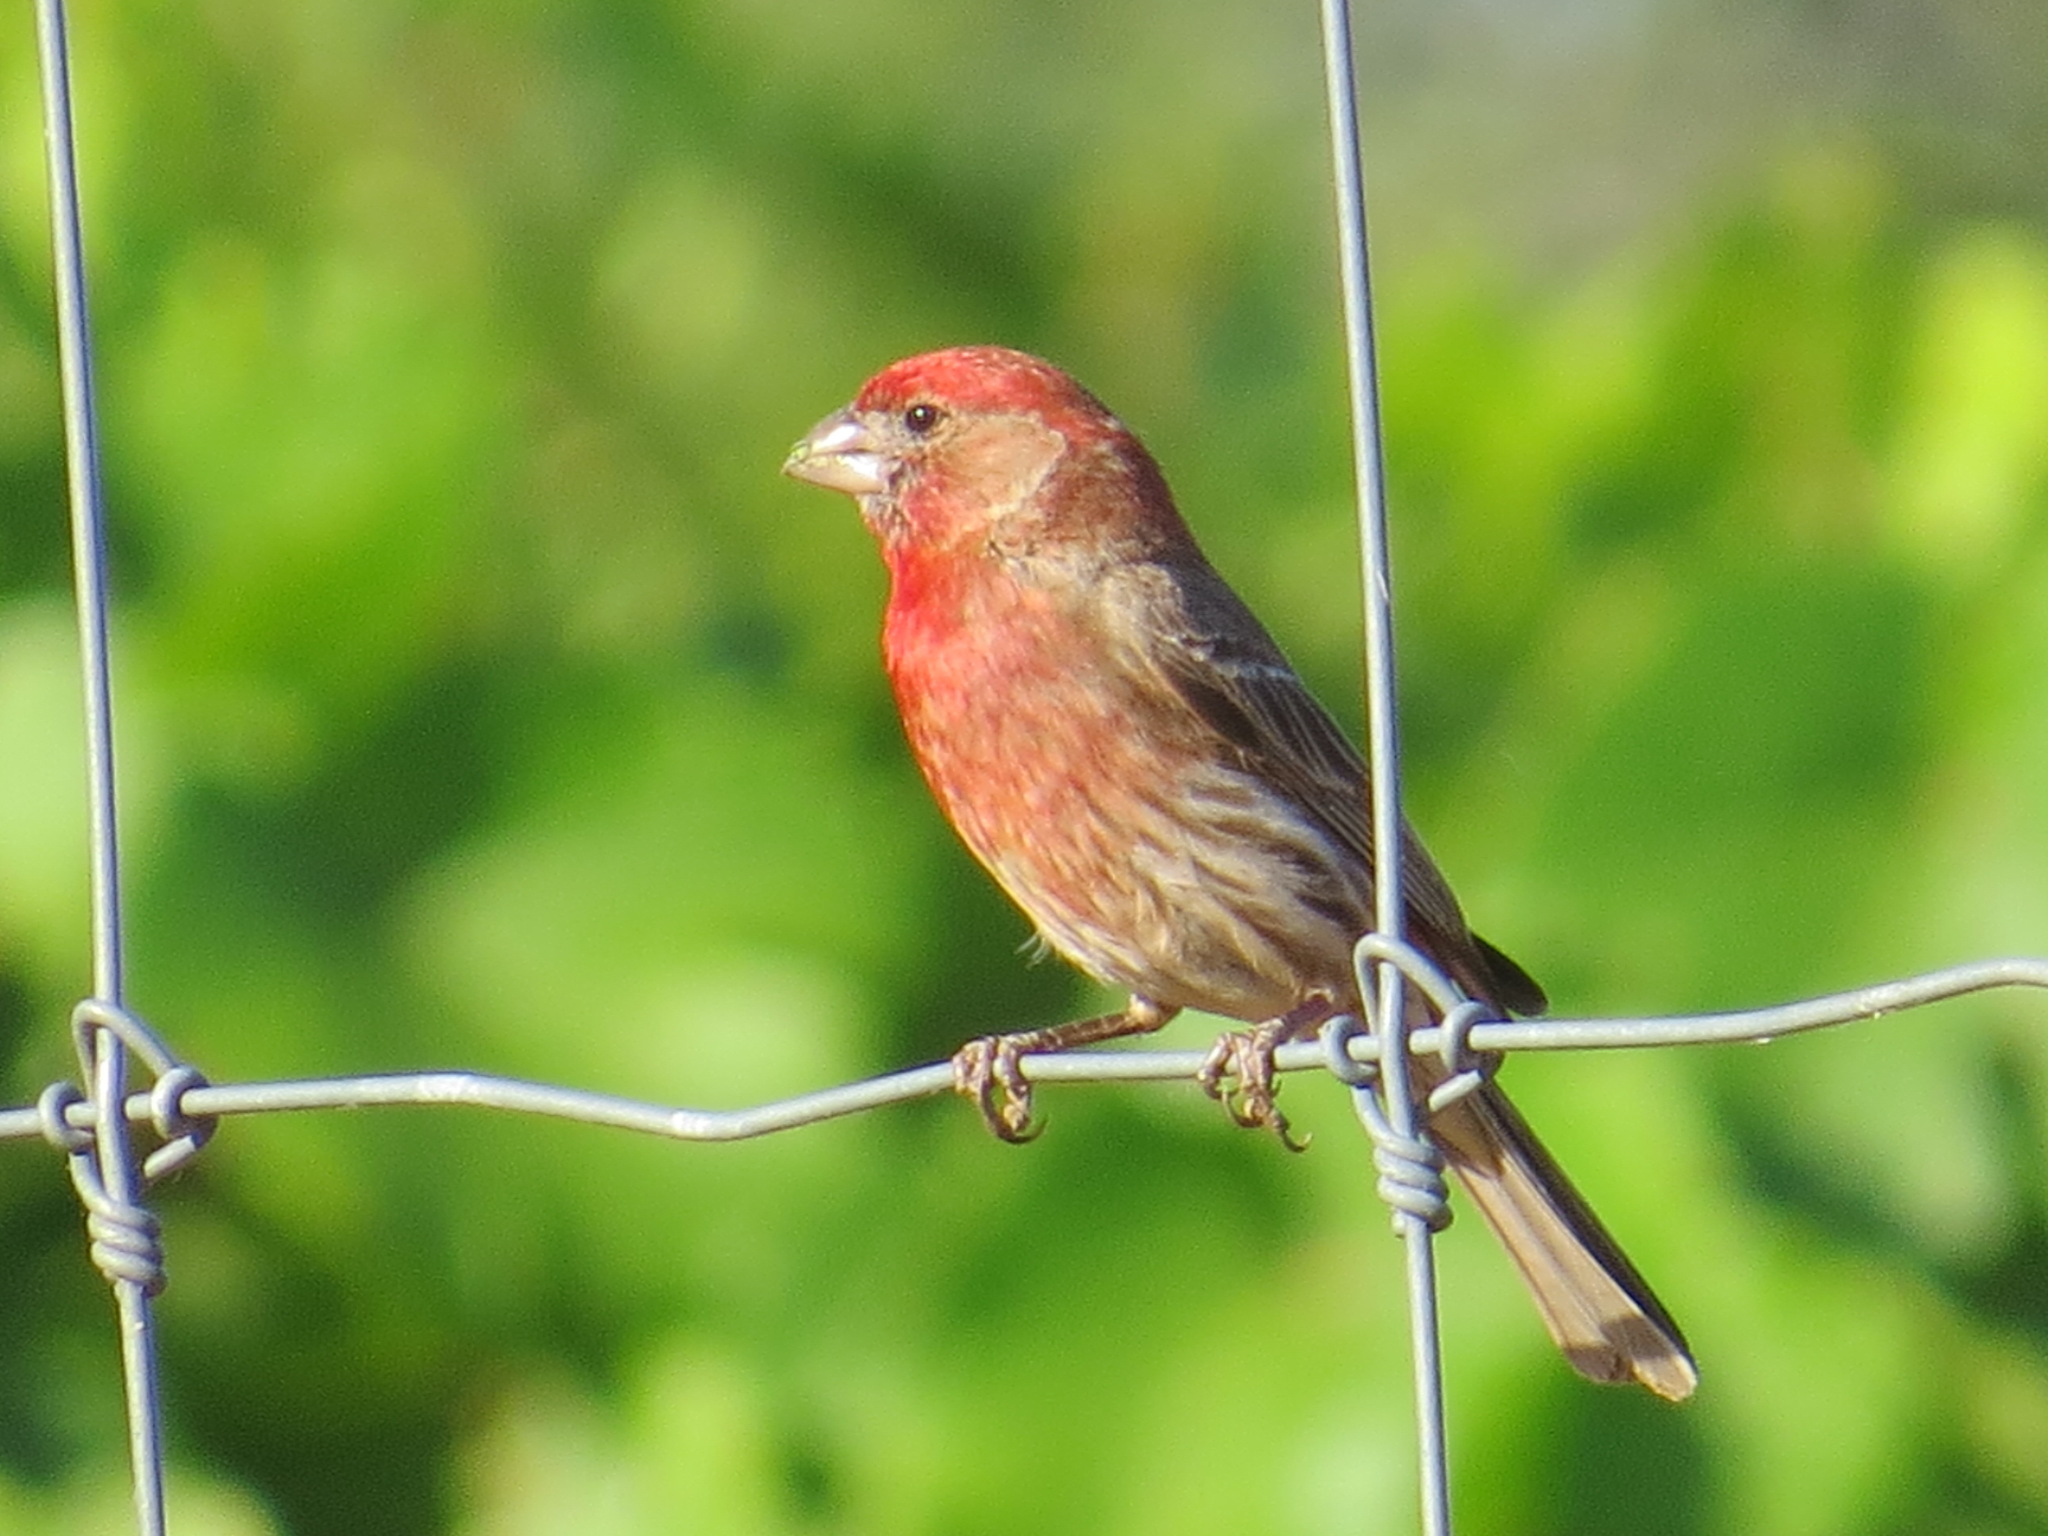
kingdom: Animalia
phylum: Chordata
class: Aves
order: Passeriformes
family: Fringillidae
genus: Haemorhous
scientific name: Haemorhous mexicanus
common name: House finch
